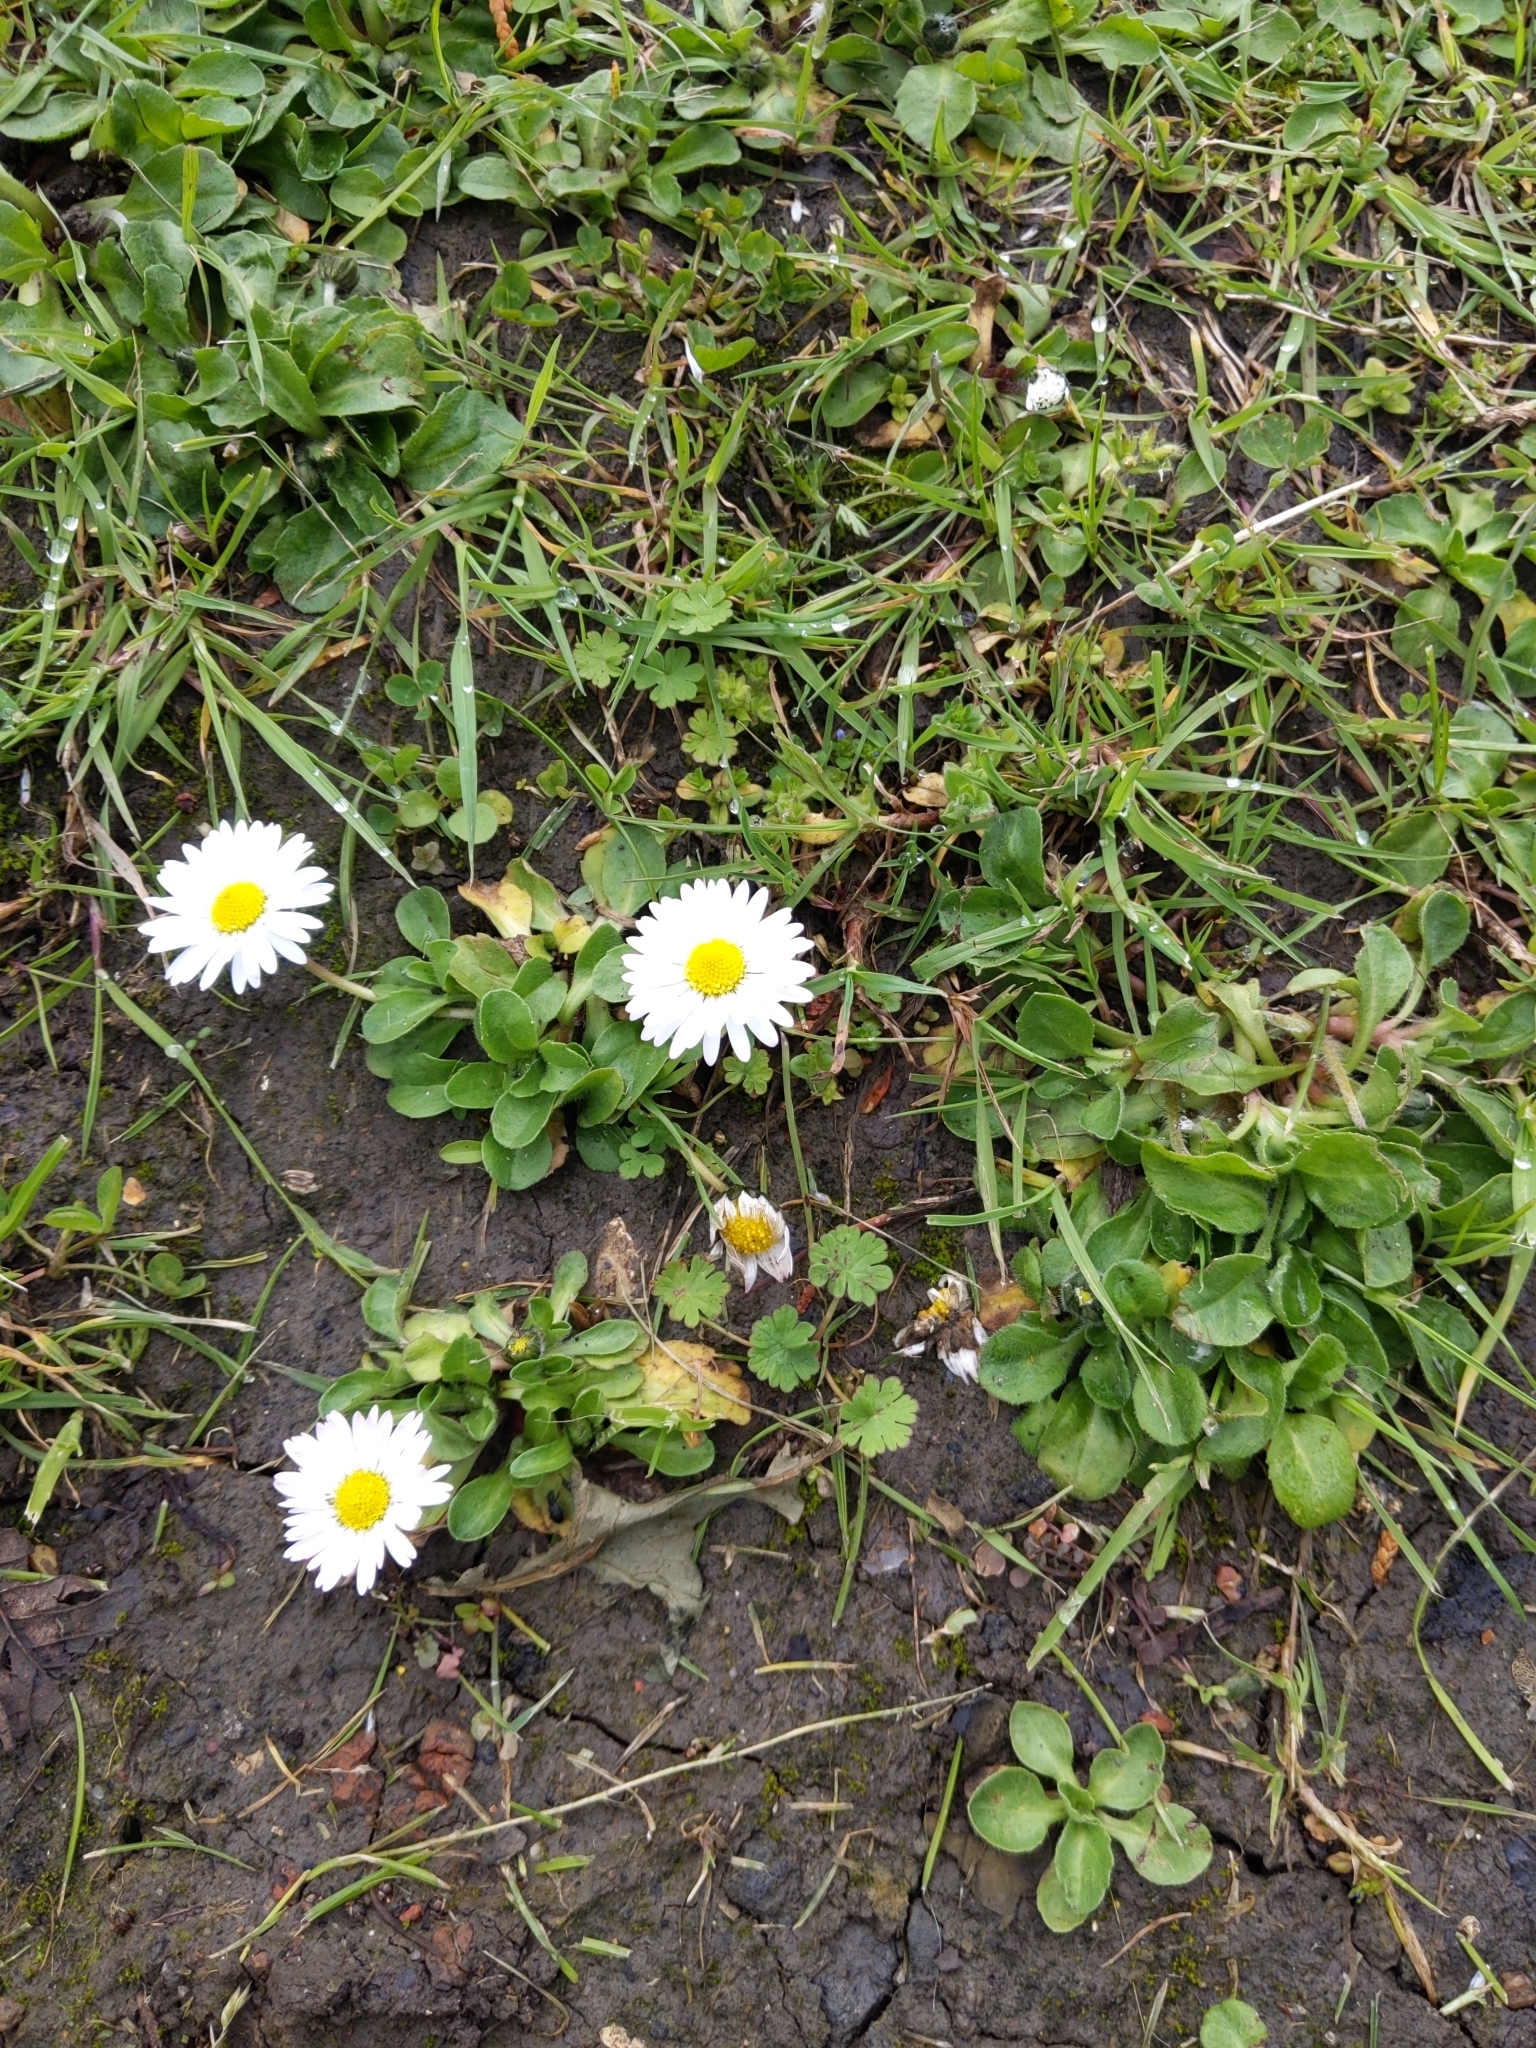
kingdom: Plantae
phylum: Tracheophyta
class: Magnoliopsida
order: Asterales
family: Asteraceae
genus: Bellis
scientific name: Bellis perennis
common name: Lawndaisy
